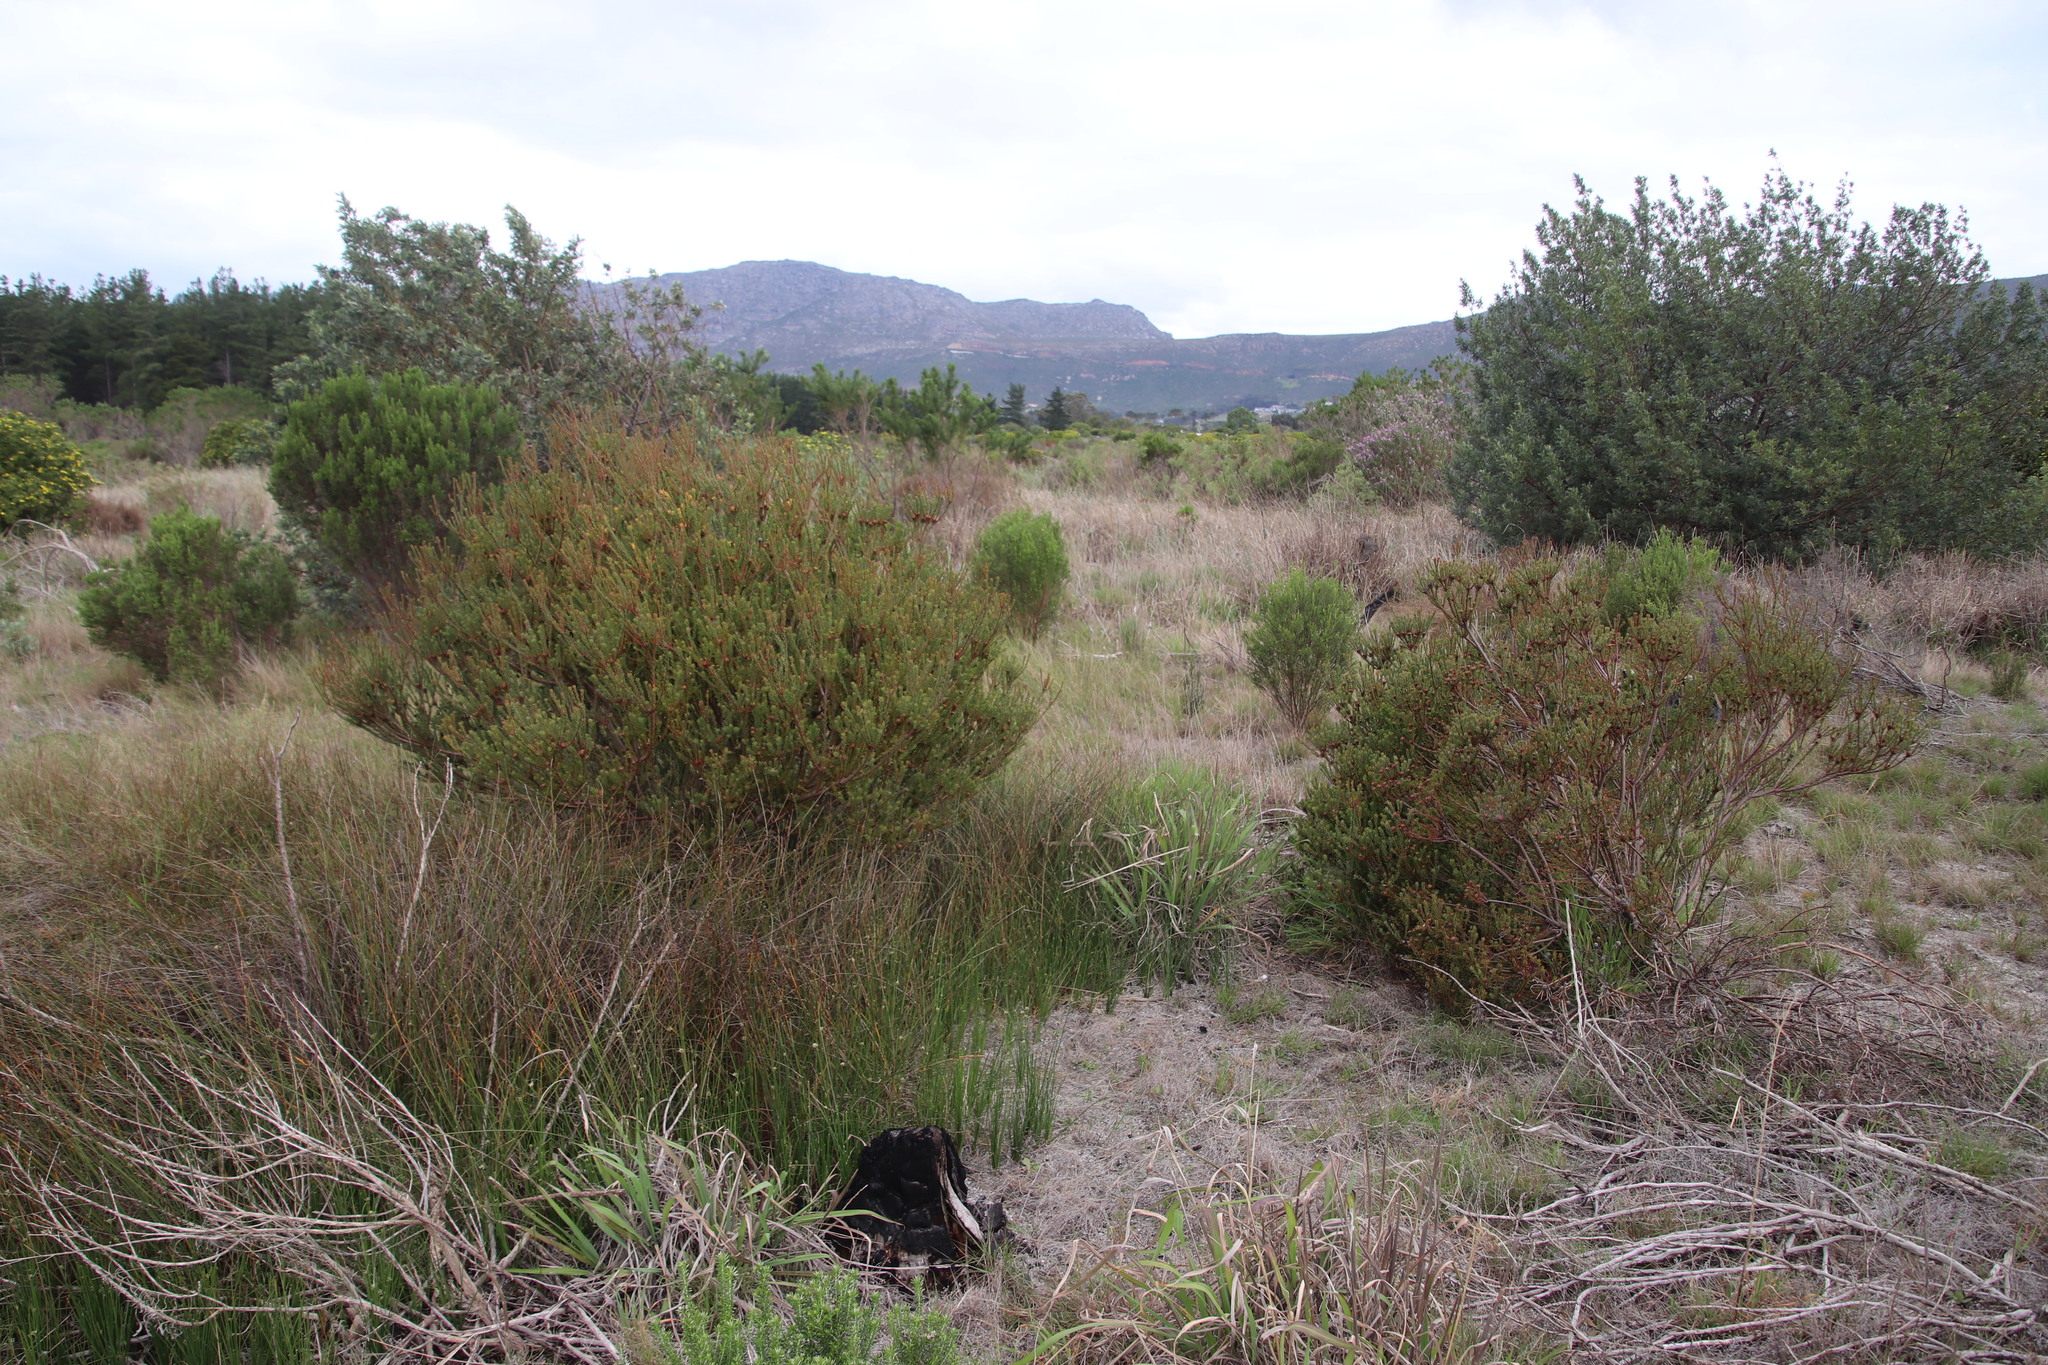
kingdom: Plantae
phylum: Tracheophyta
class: Magnoliopsida
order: Proteales
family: Proteaceae
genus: Leucadendron
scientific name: Leucadendron levisanus
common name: Cape flats conebush
